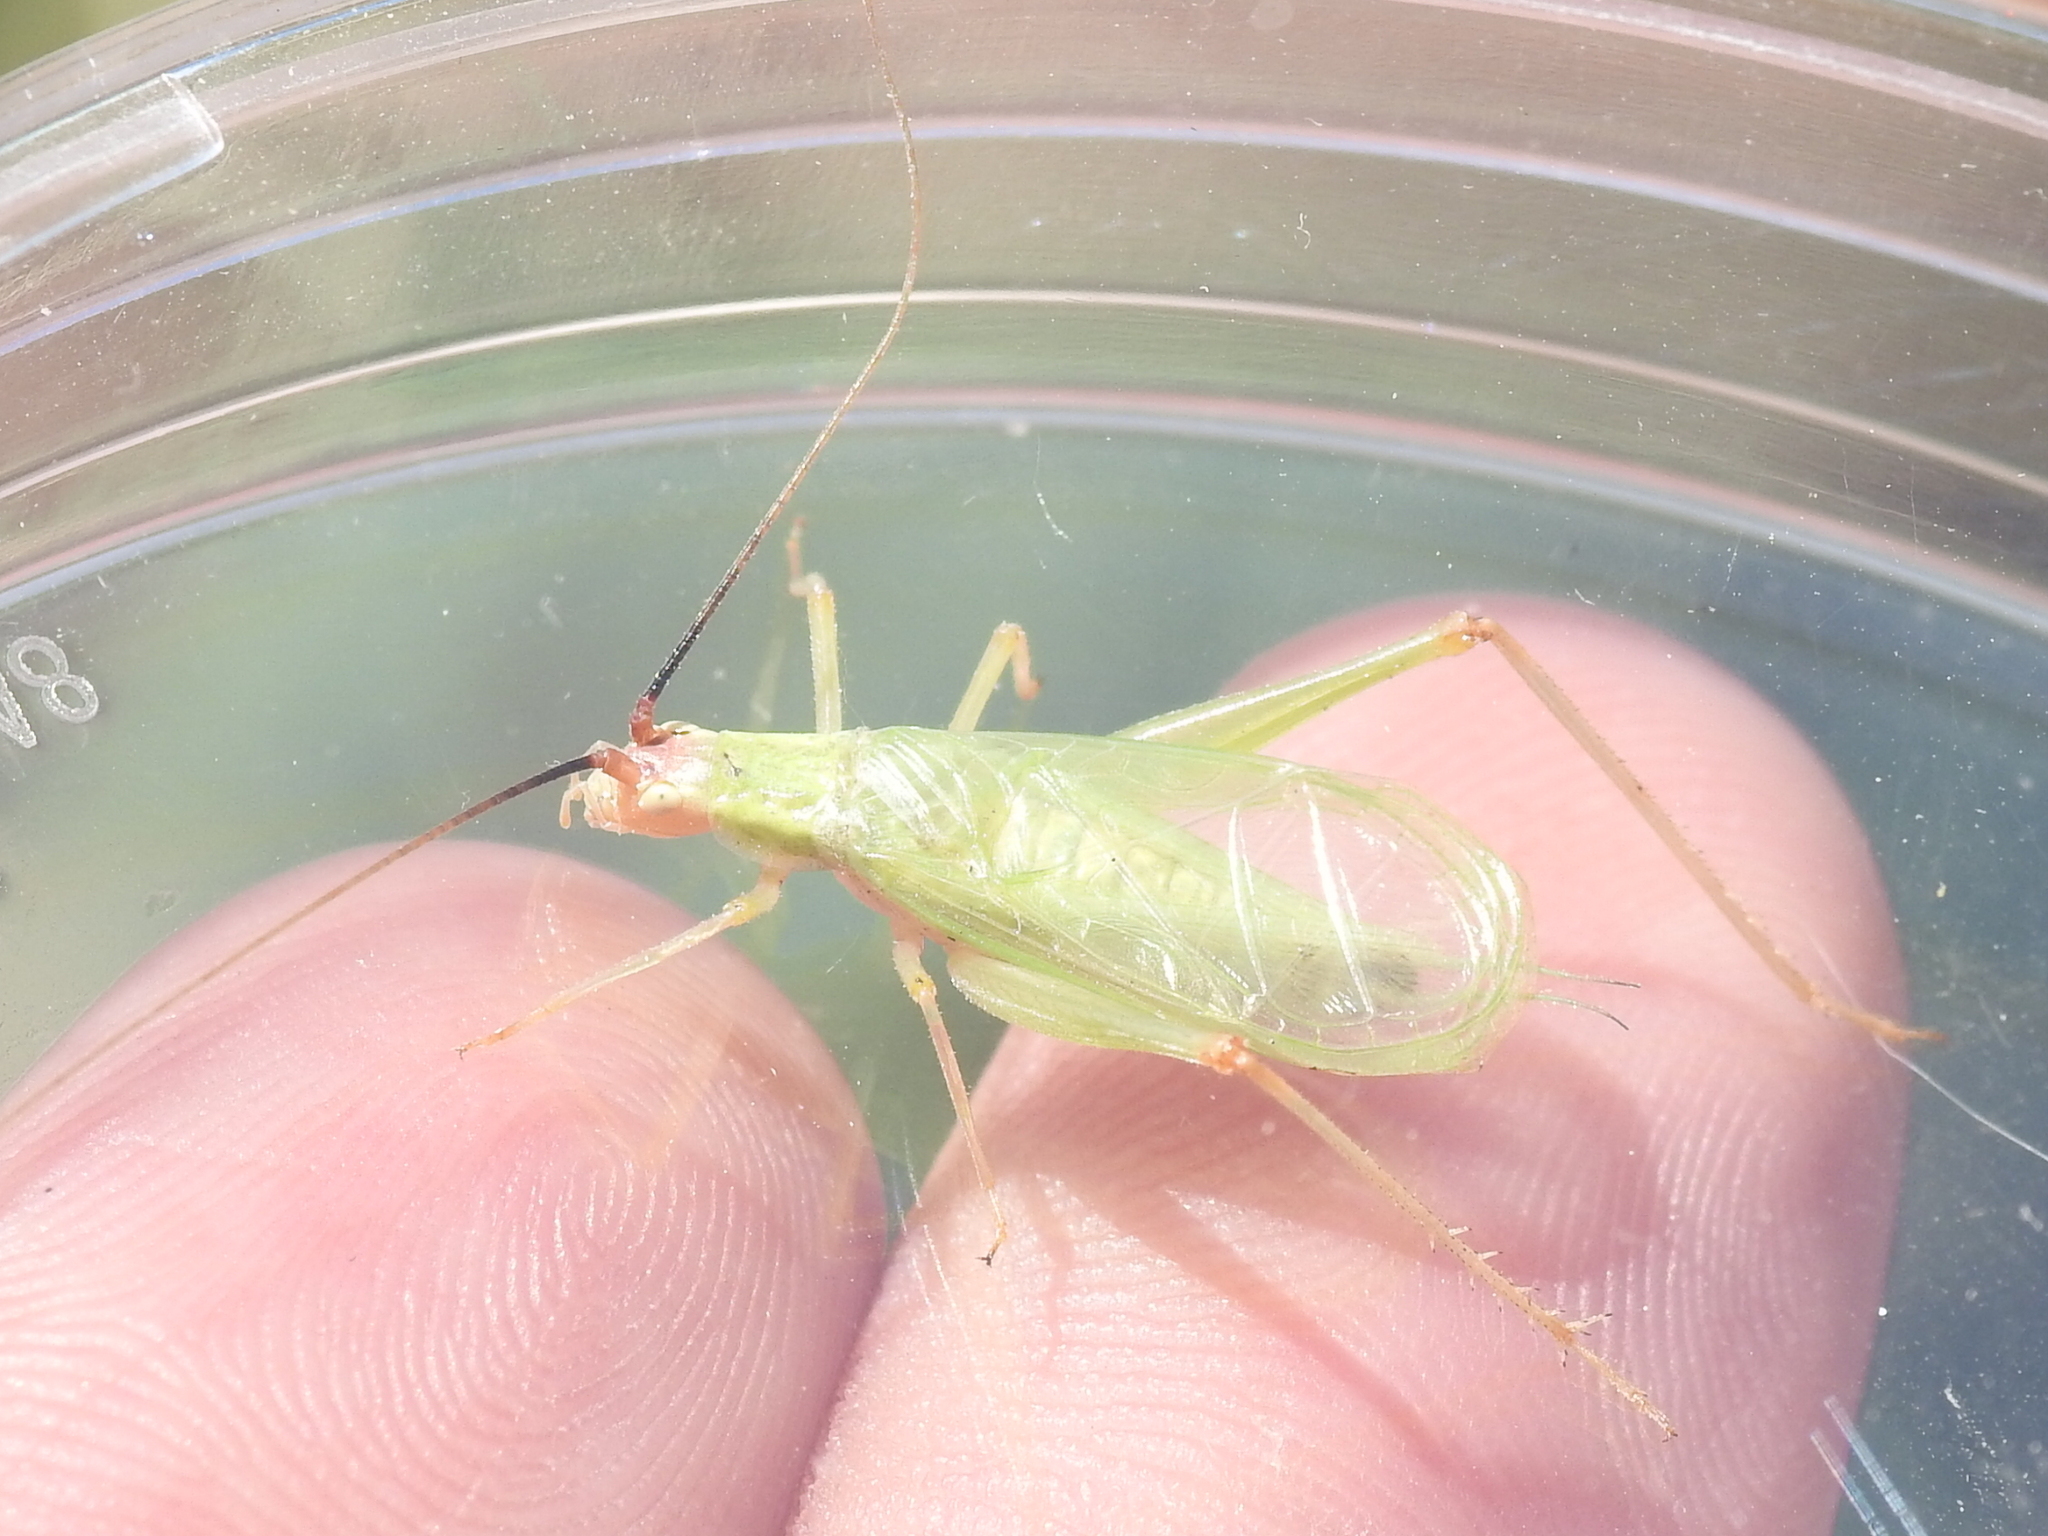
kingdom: Animalia
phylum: Arthropoda
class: Insecta
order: Orthoptera
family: Gryllidae
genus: Oecanthus
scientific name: Oecanthus texensis
